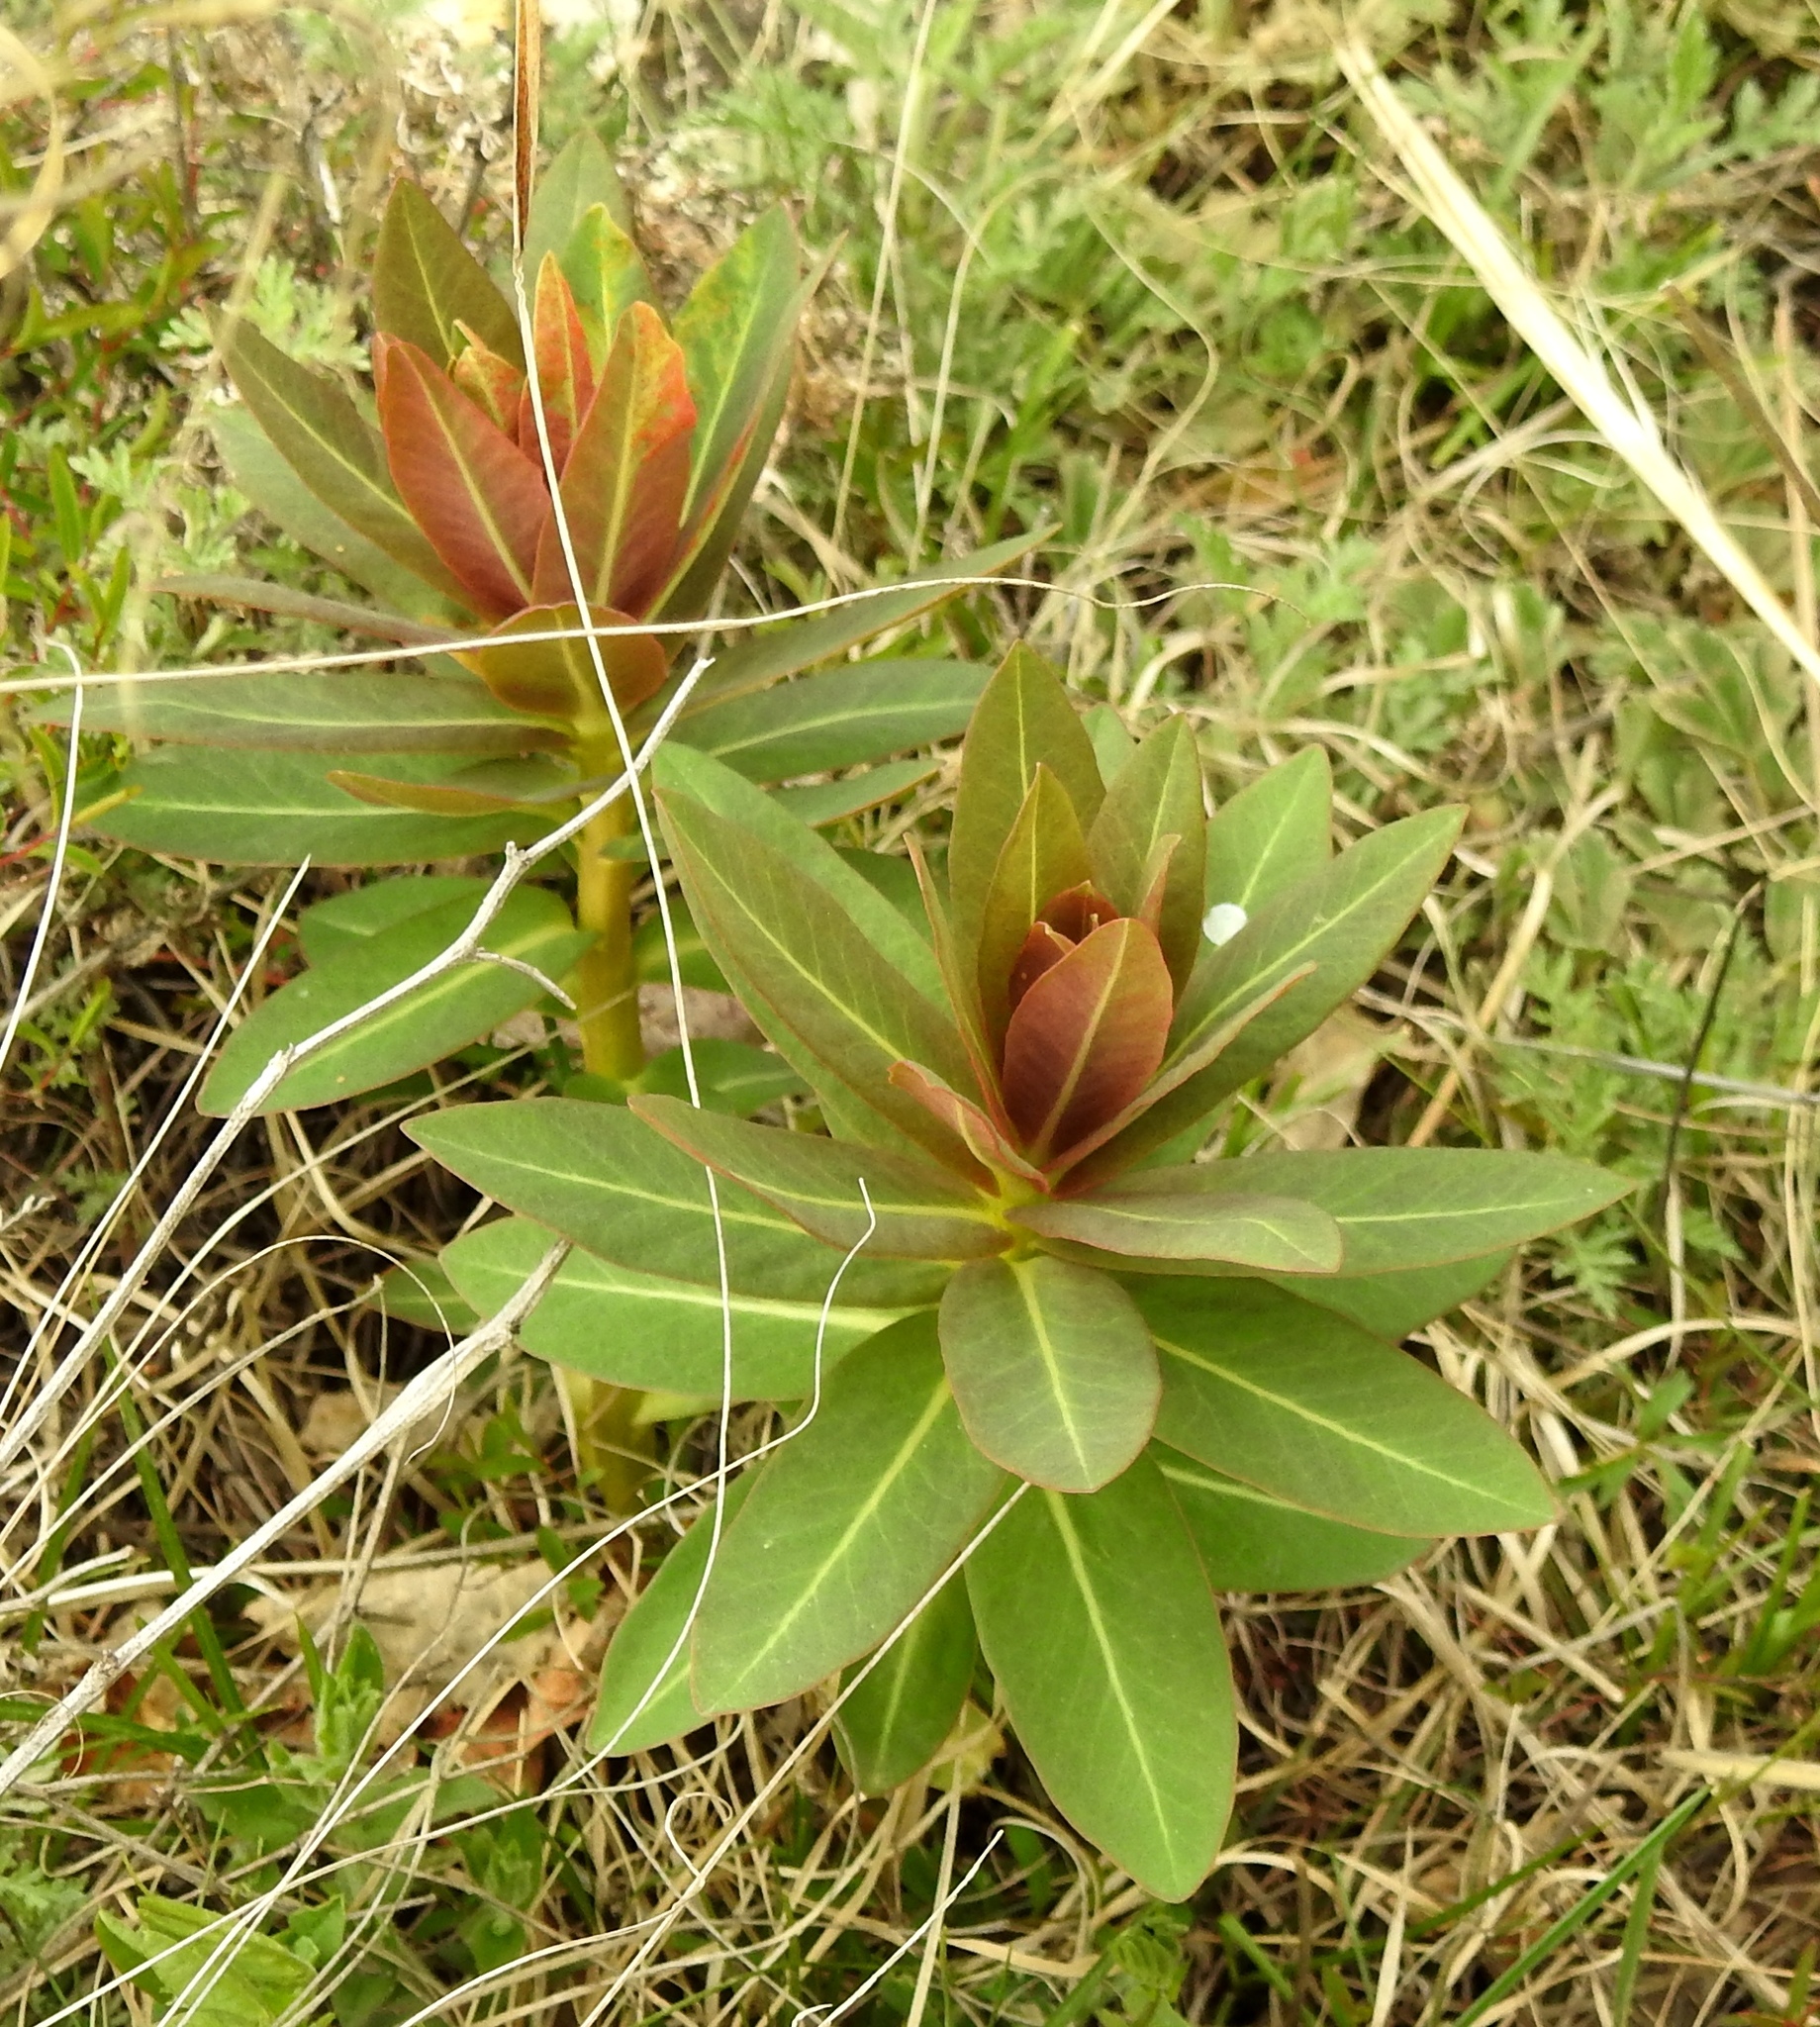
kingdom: Plantae
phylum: Tracheophyta
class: Magnoliopsida
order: Malpighiales
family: Euphorbiaceae
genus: Euphorbia
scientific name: Euphorbia fischeriana
